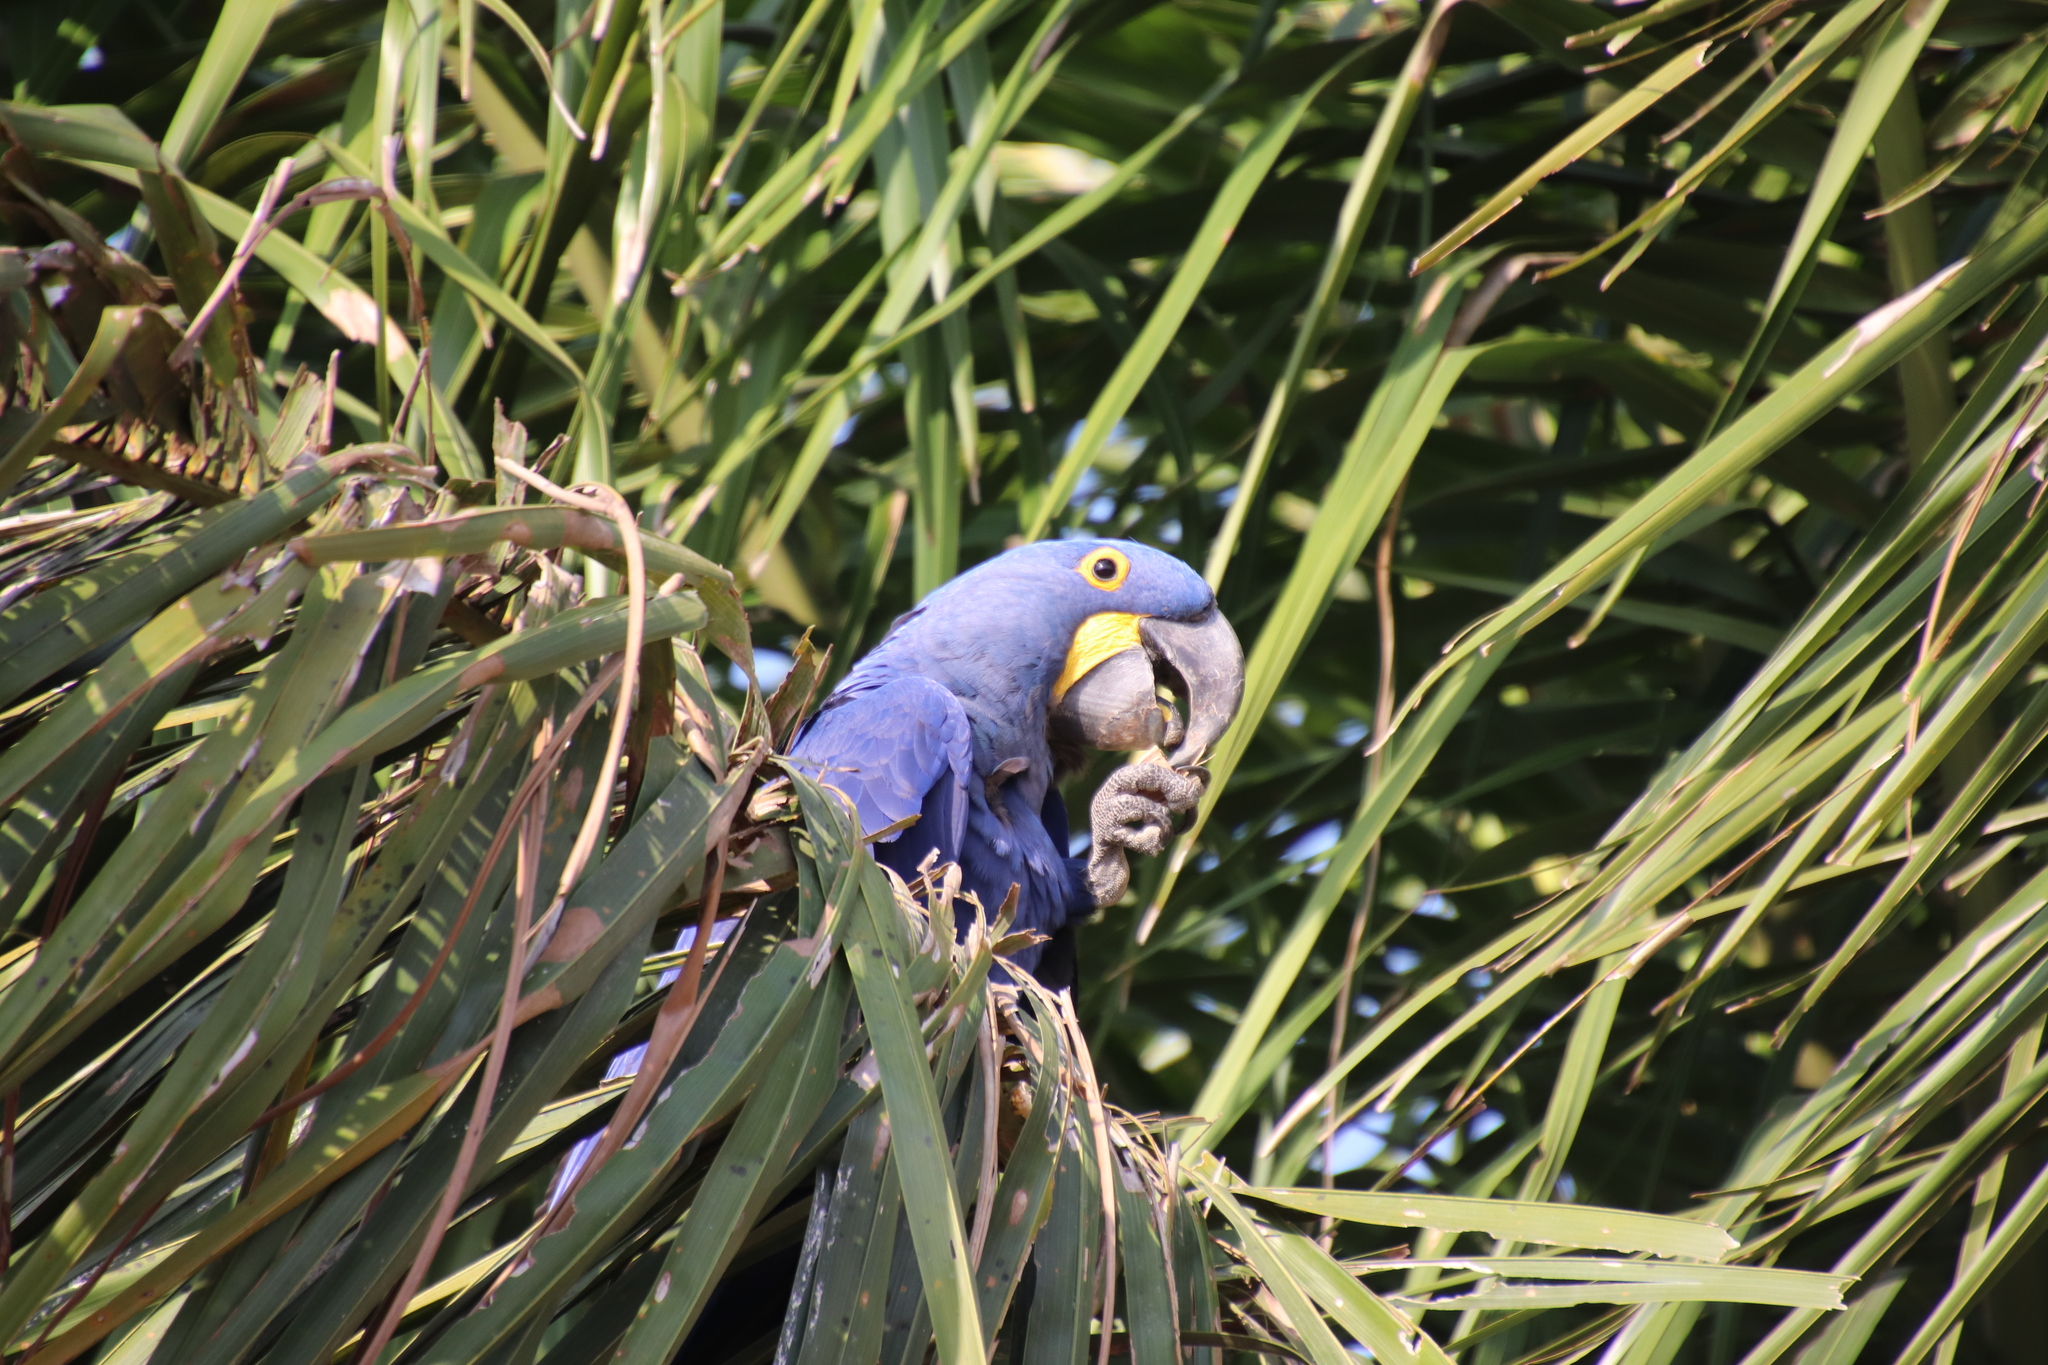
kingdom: Animalia
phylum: Chordata
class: Aves
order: Psittaciformes
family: Psittacidae
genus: Anodorhynchus
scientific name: Anodorhynchus hyacinthinus
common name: Hyacinth macaw
